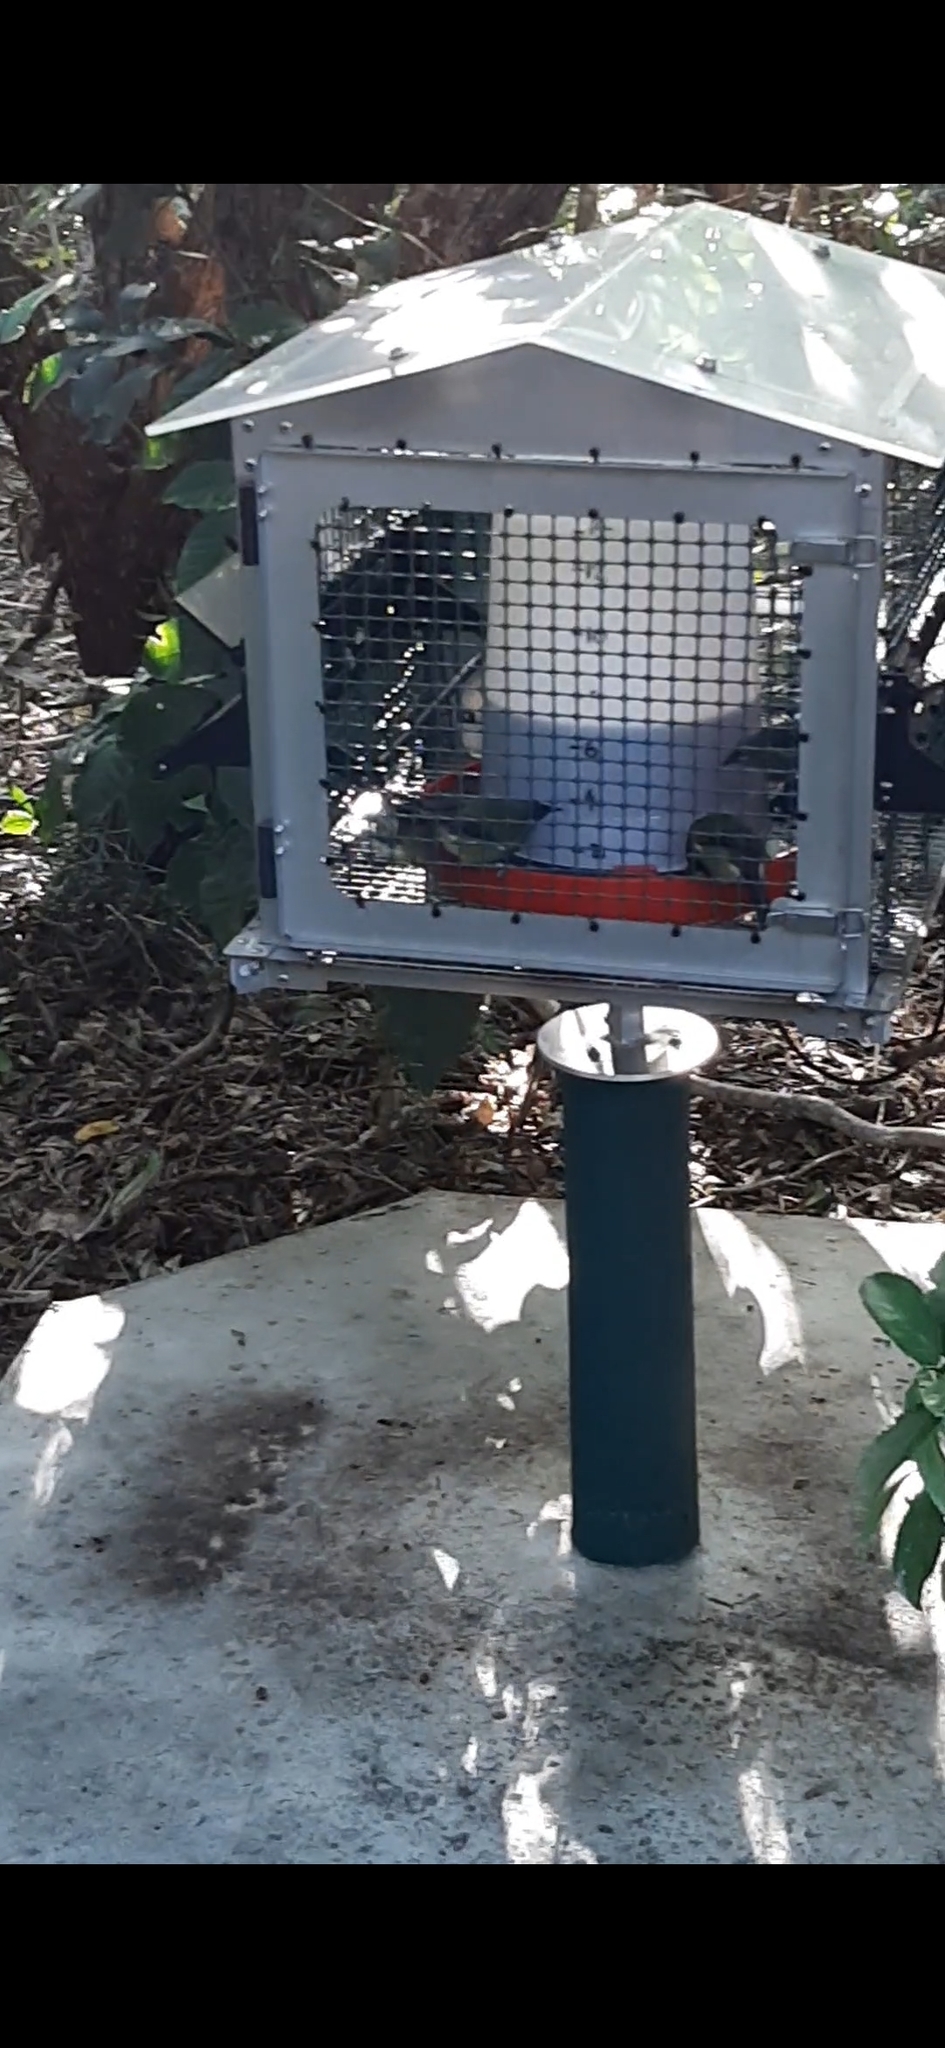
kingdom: Animalia
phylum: Chordata
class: Aves
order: Passeriformes
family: Meliphagidae
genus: Anthornis
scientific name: Anthornis melanura
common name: New zealand bellbird
